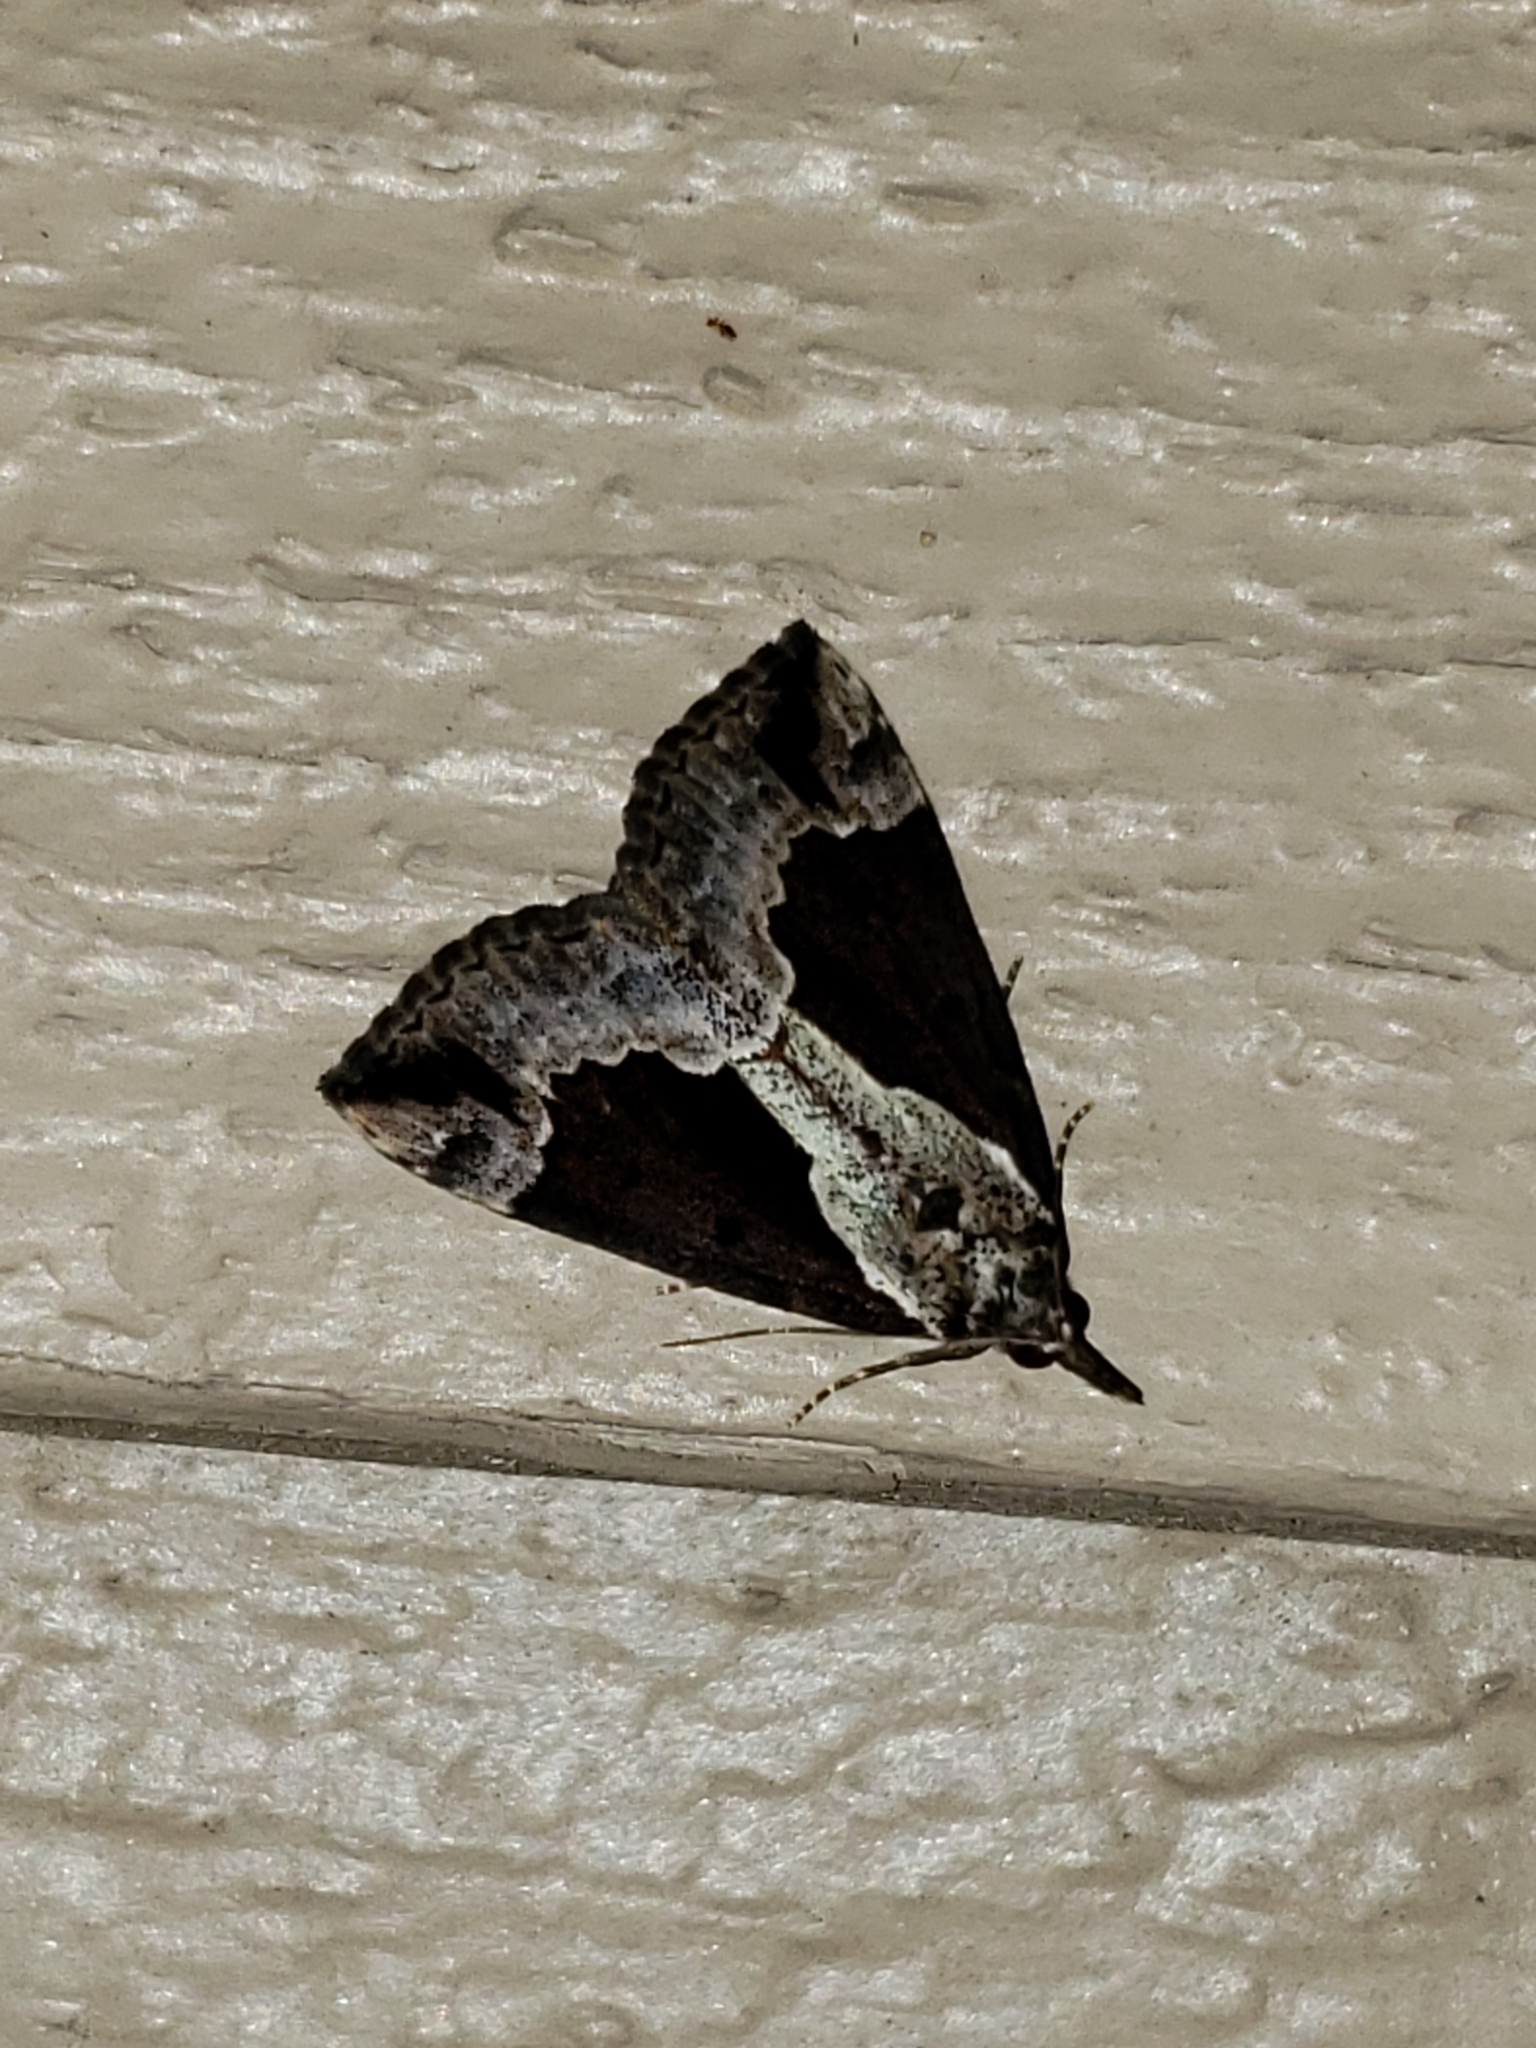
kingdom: Animalia
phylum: Arthropoda
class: Insecta
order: Lepidoptera
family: Erebidae
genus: Hypena
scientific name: Hypena baltimoralis
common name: Baltimore snout
